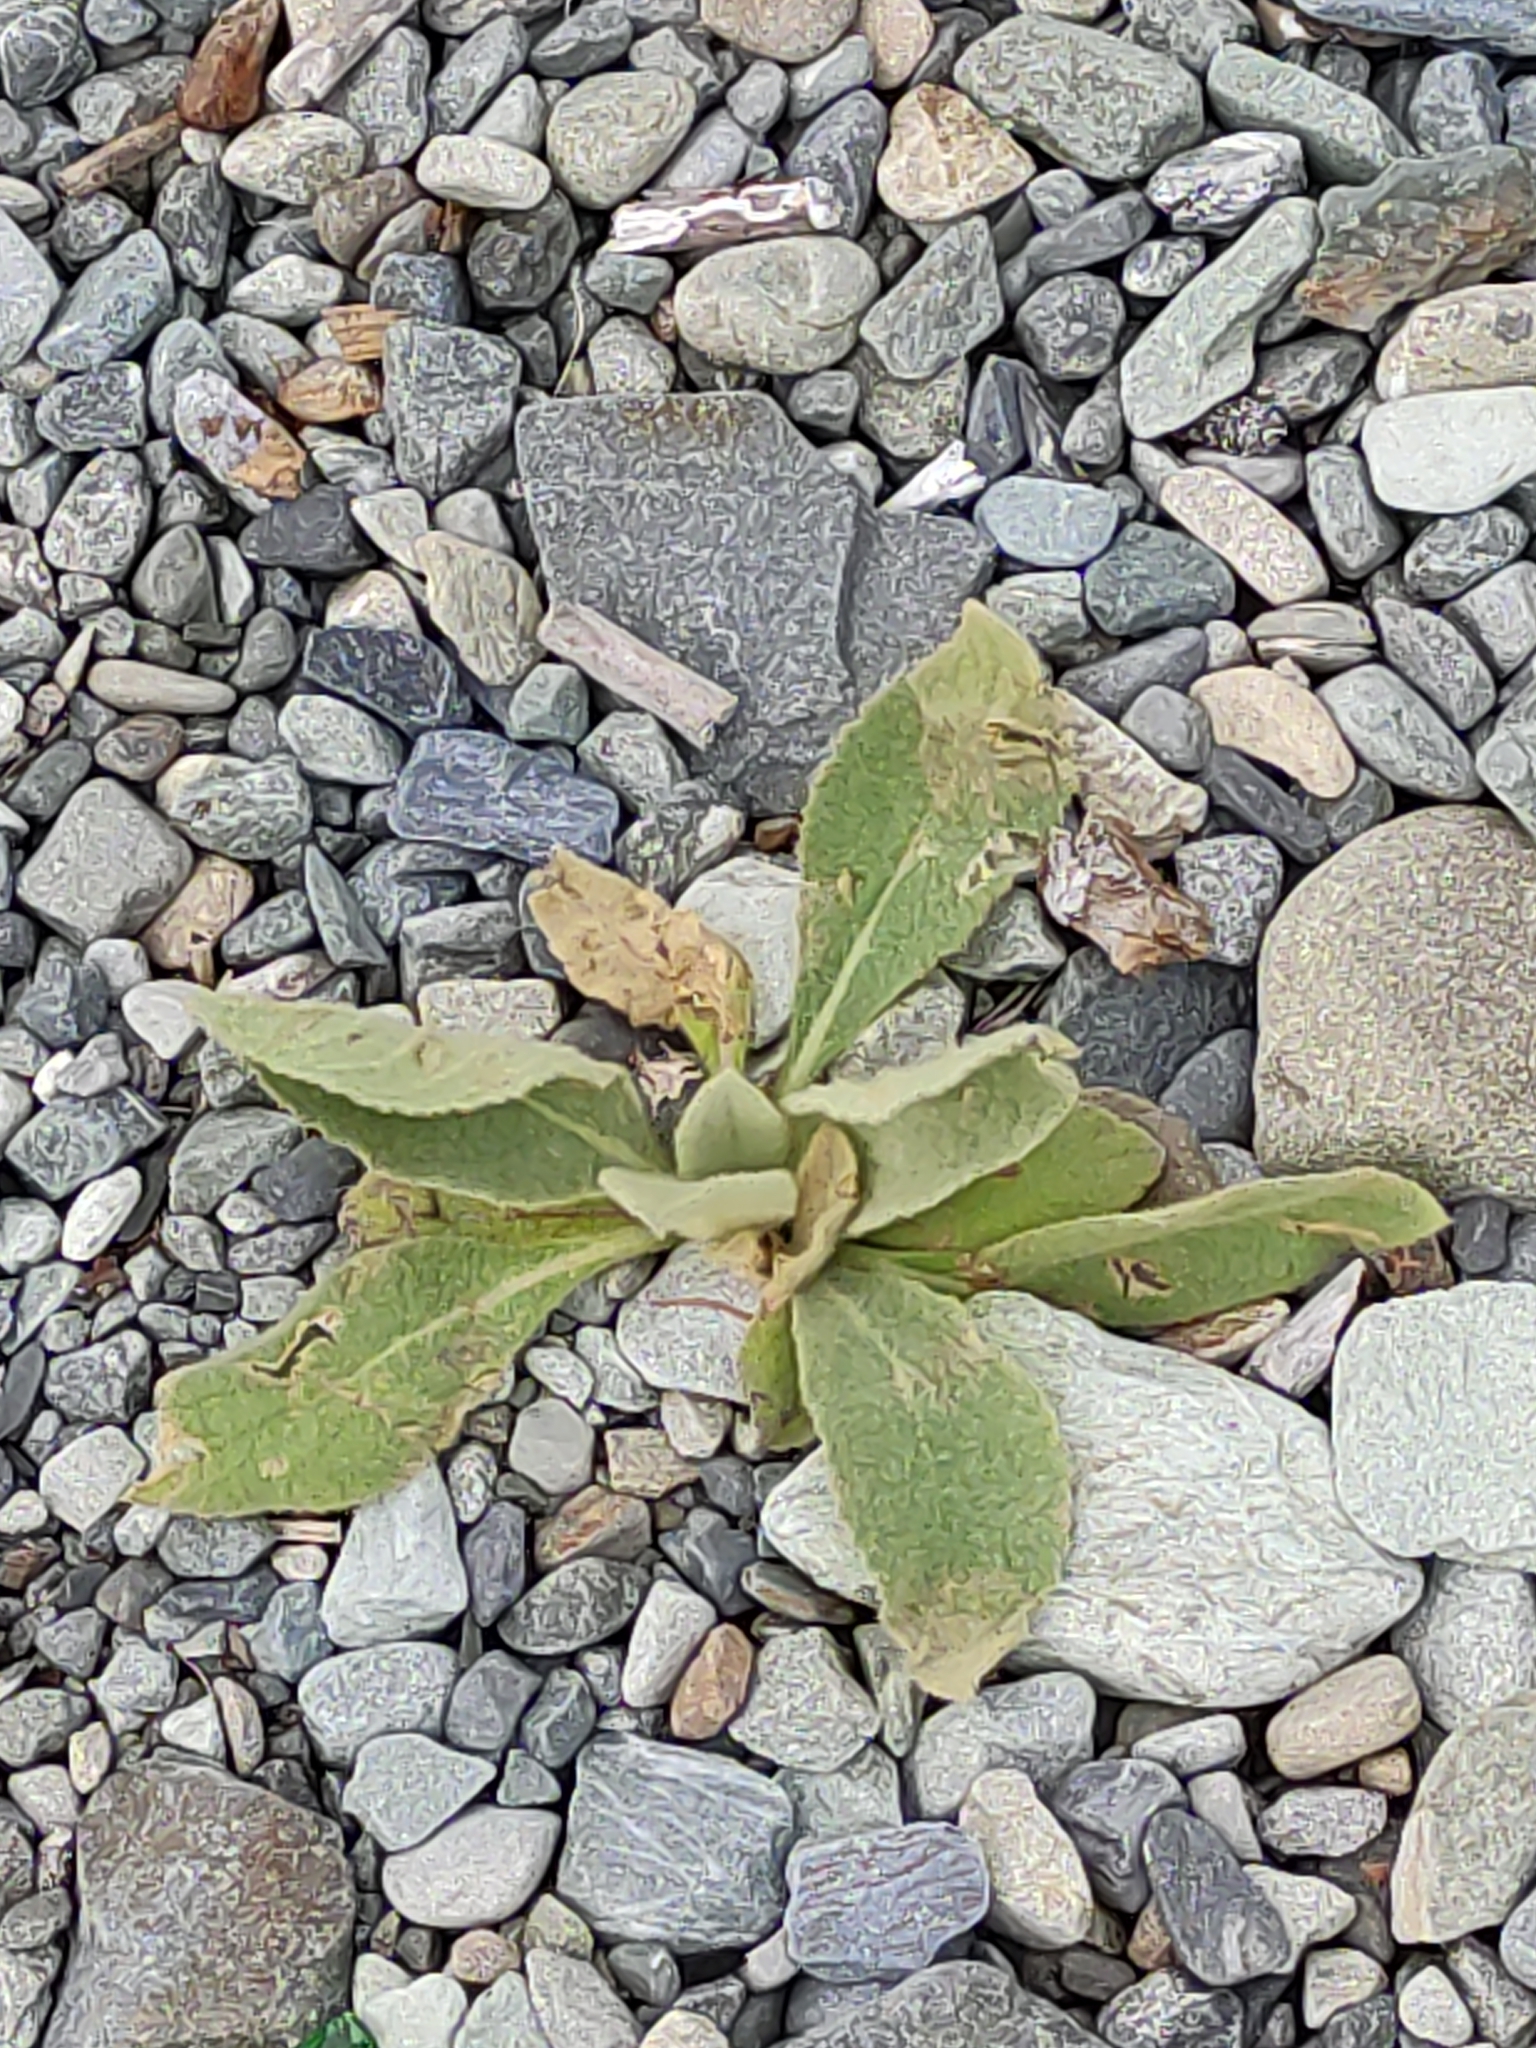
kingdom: Plantae
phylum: Tracheophyta
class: Magnoliopsida
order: Lamiales
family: Scrophulariaceae
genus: Verbascum
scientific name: Verbascum thapsus
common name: Common mullein
